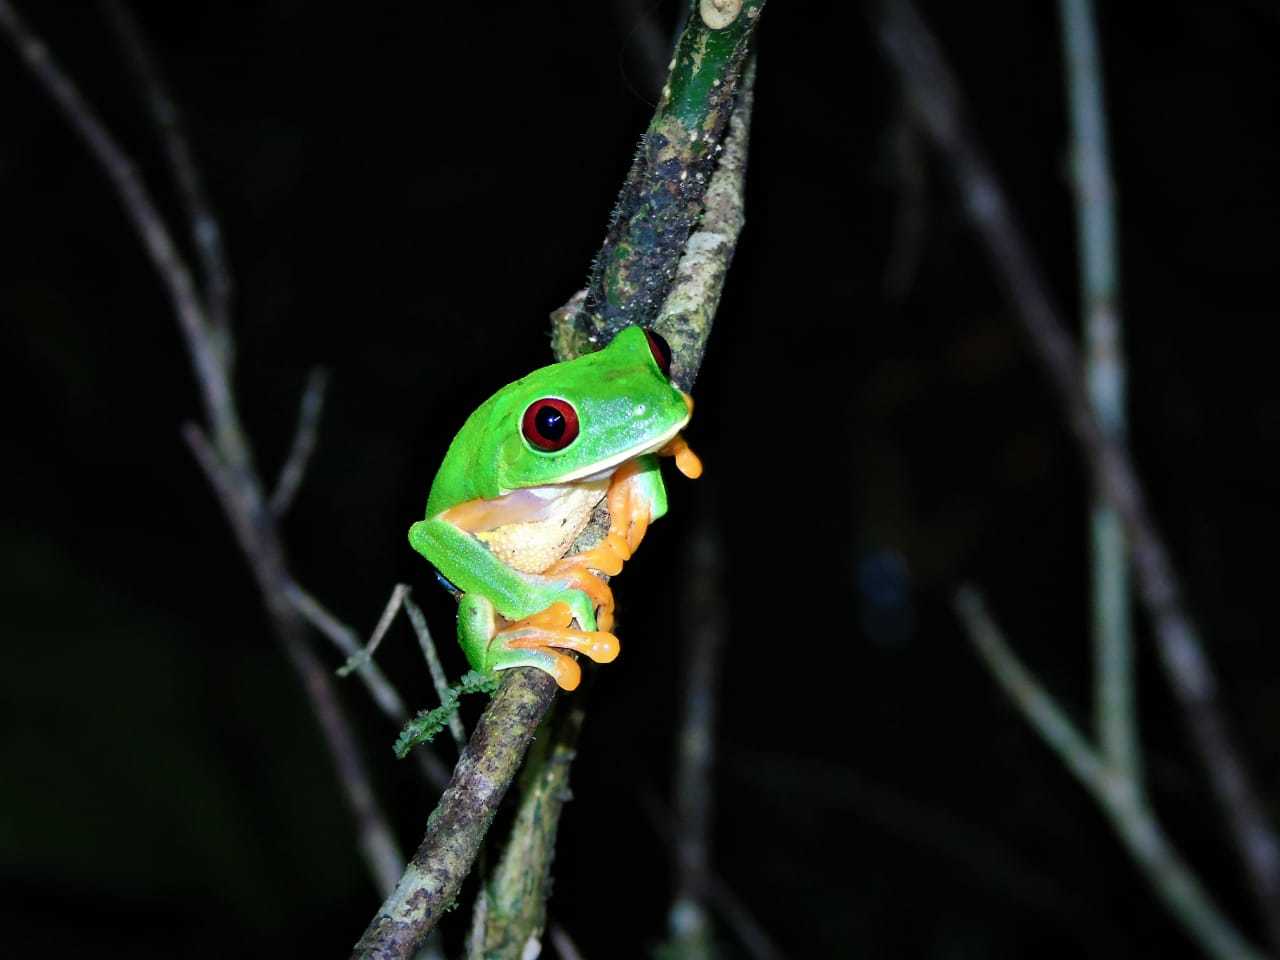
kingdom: Animalia
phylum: Chordata
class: Amphibia
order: Anura
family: Phyllomedusidae
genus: Agalychnis
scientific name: Agalychnis callidryas
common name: Red-eyed treefrog
